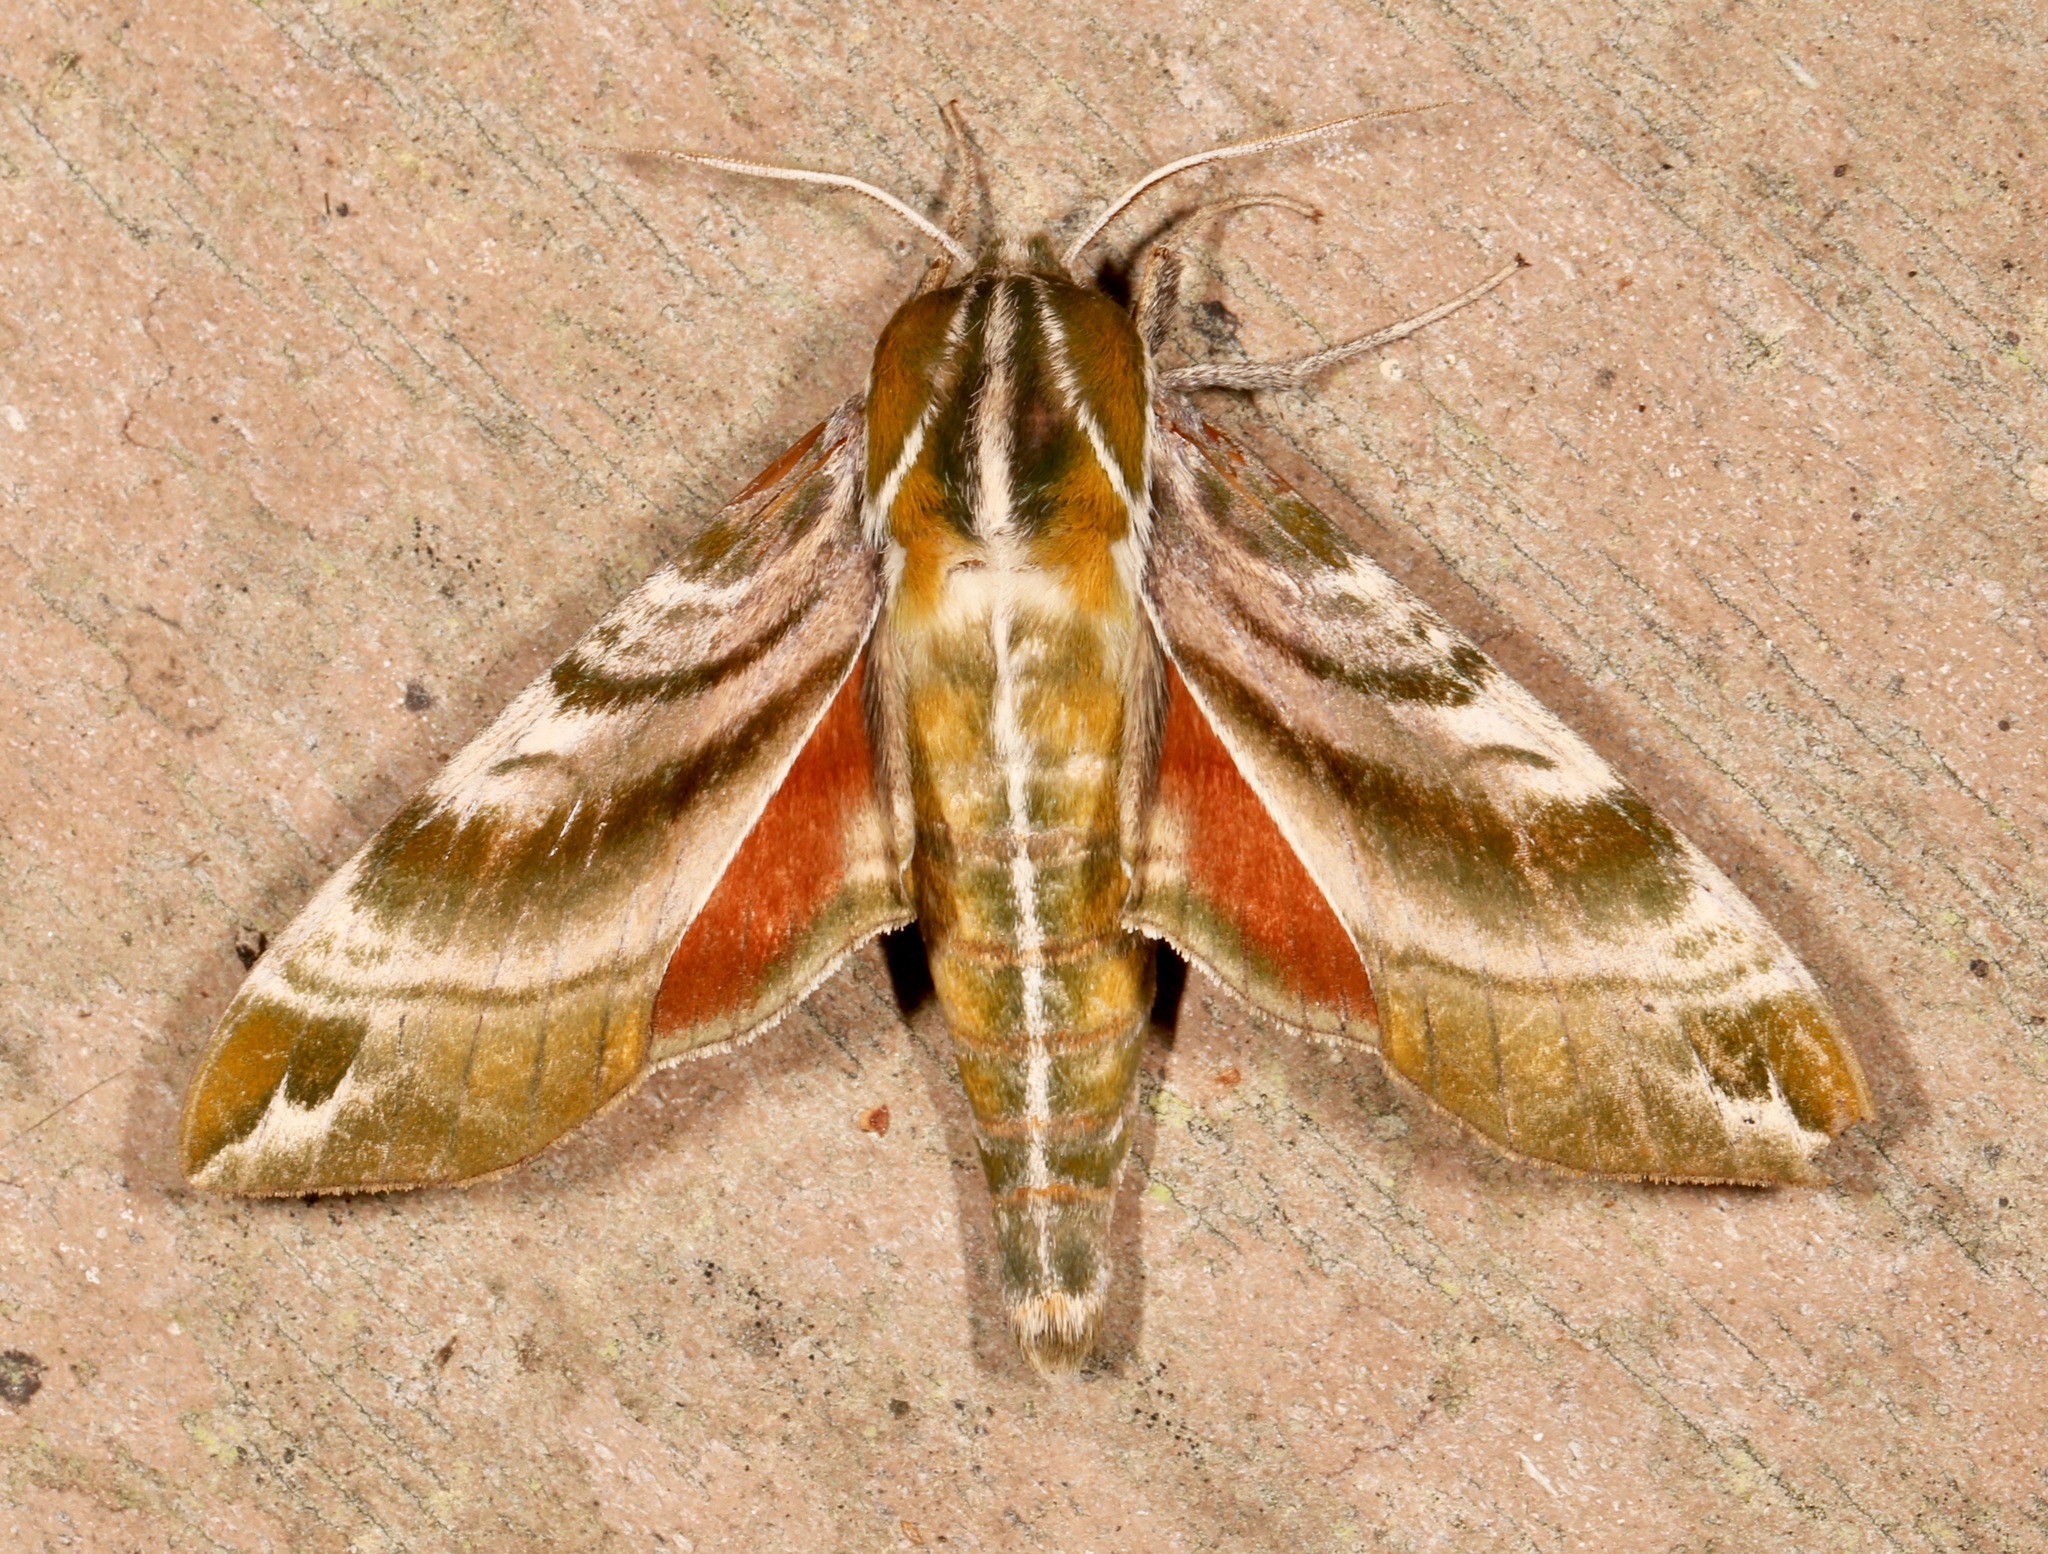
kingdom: Animalia
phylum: Arthropoda
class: Insecta
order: Lepidoptera
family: Sphingidae
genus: Darapsa
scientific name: Darapsa versicolor
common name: Hydrangea sphinx
